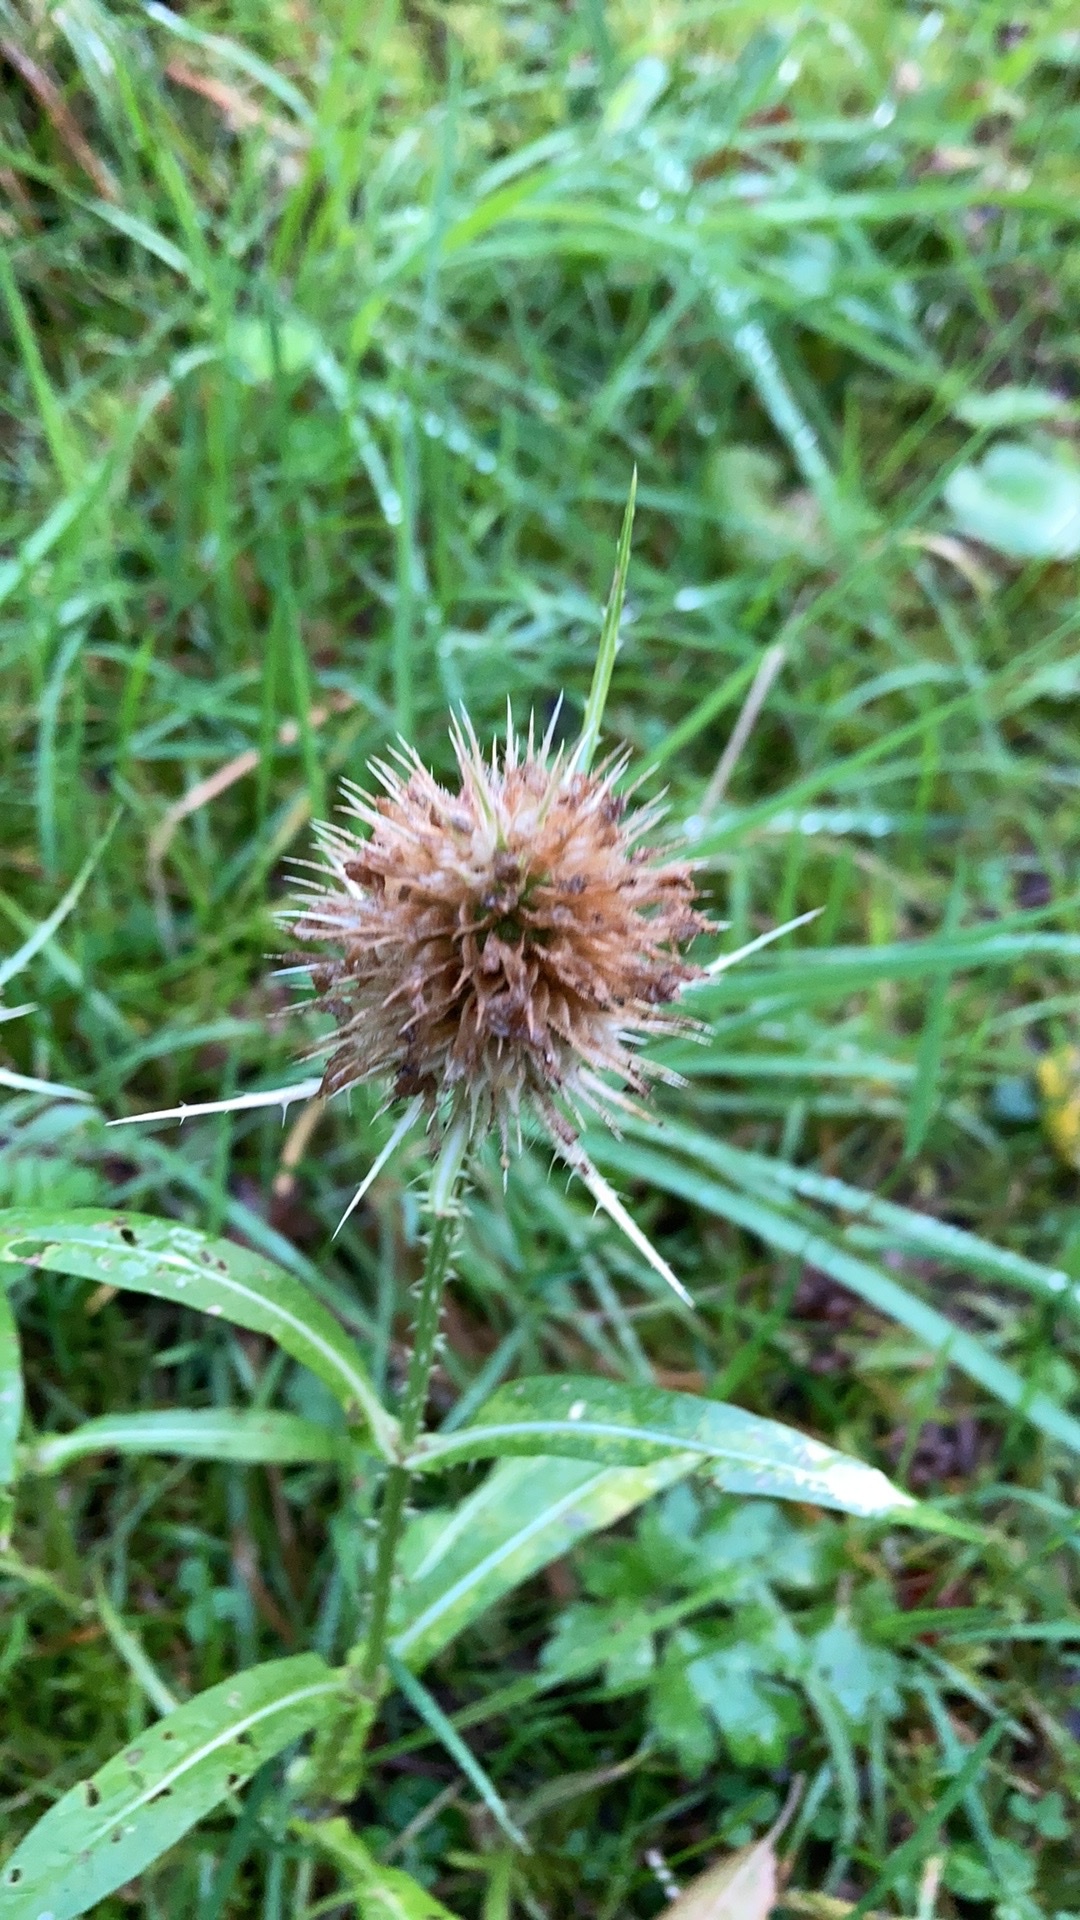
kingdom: Plantae
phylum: Tracheophyta
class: Magnoliopsida
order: Dipsacales
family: Caprifoliaceae
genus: Dipsacus
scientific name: Dipsacus fullonum
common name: Teasel
